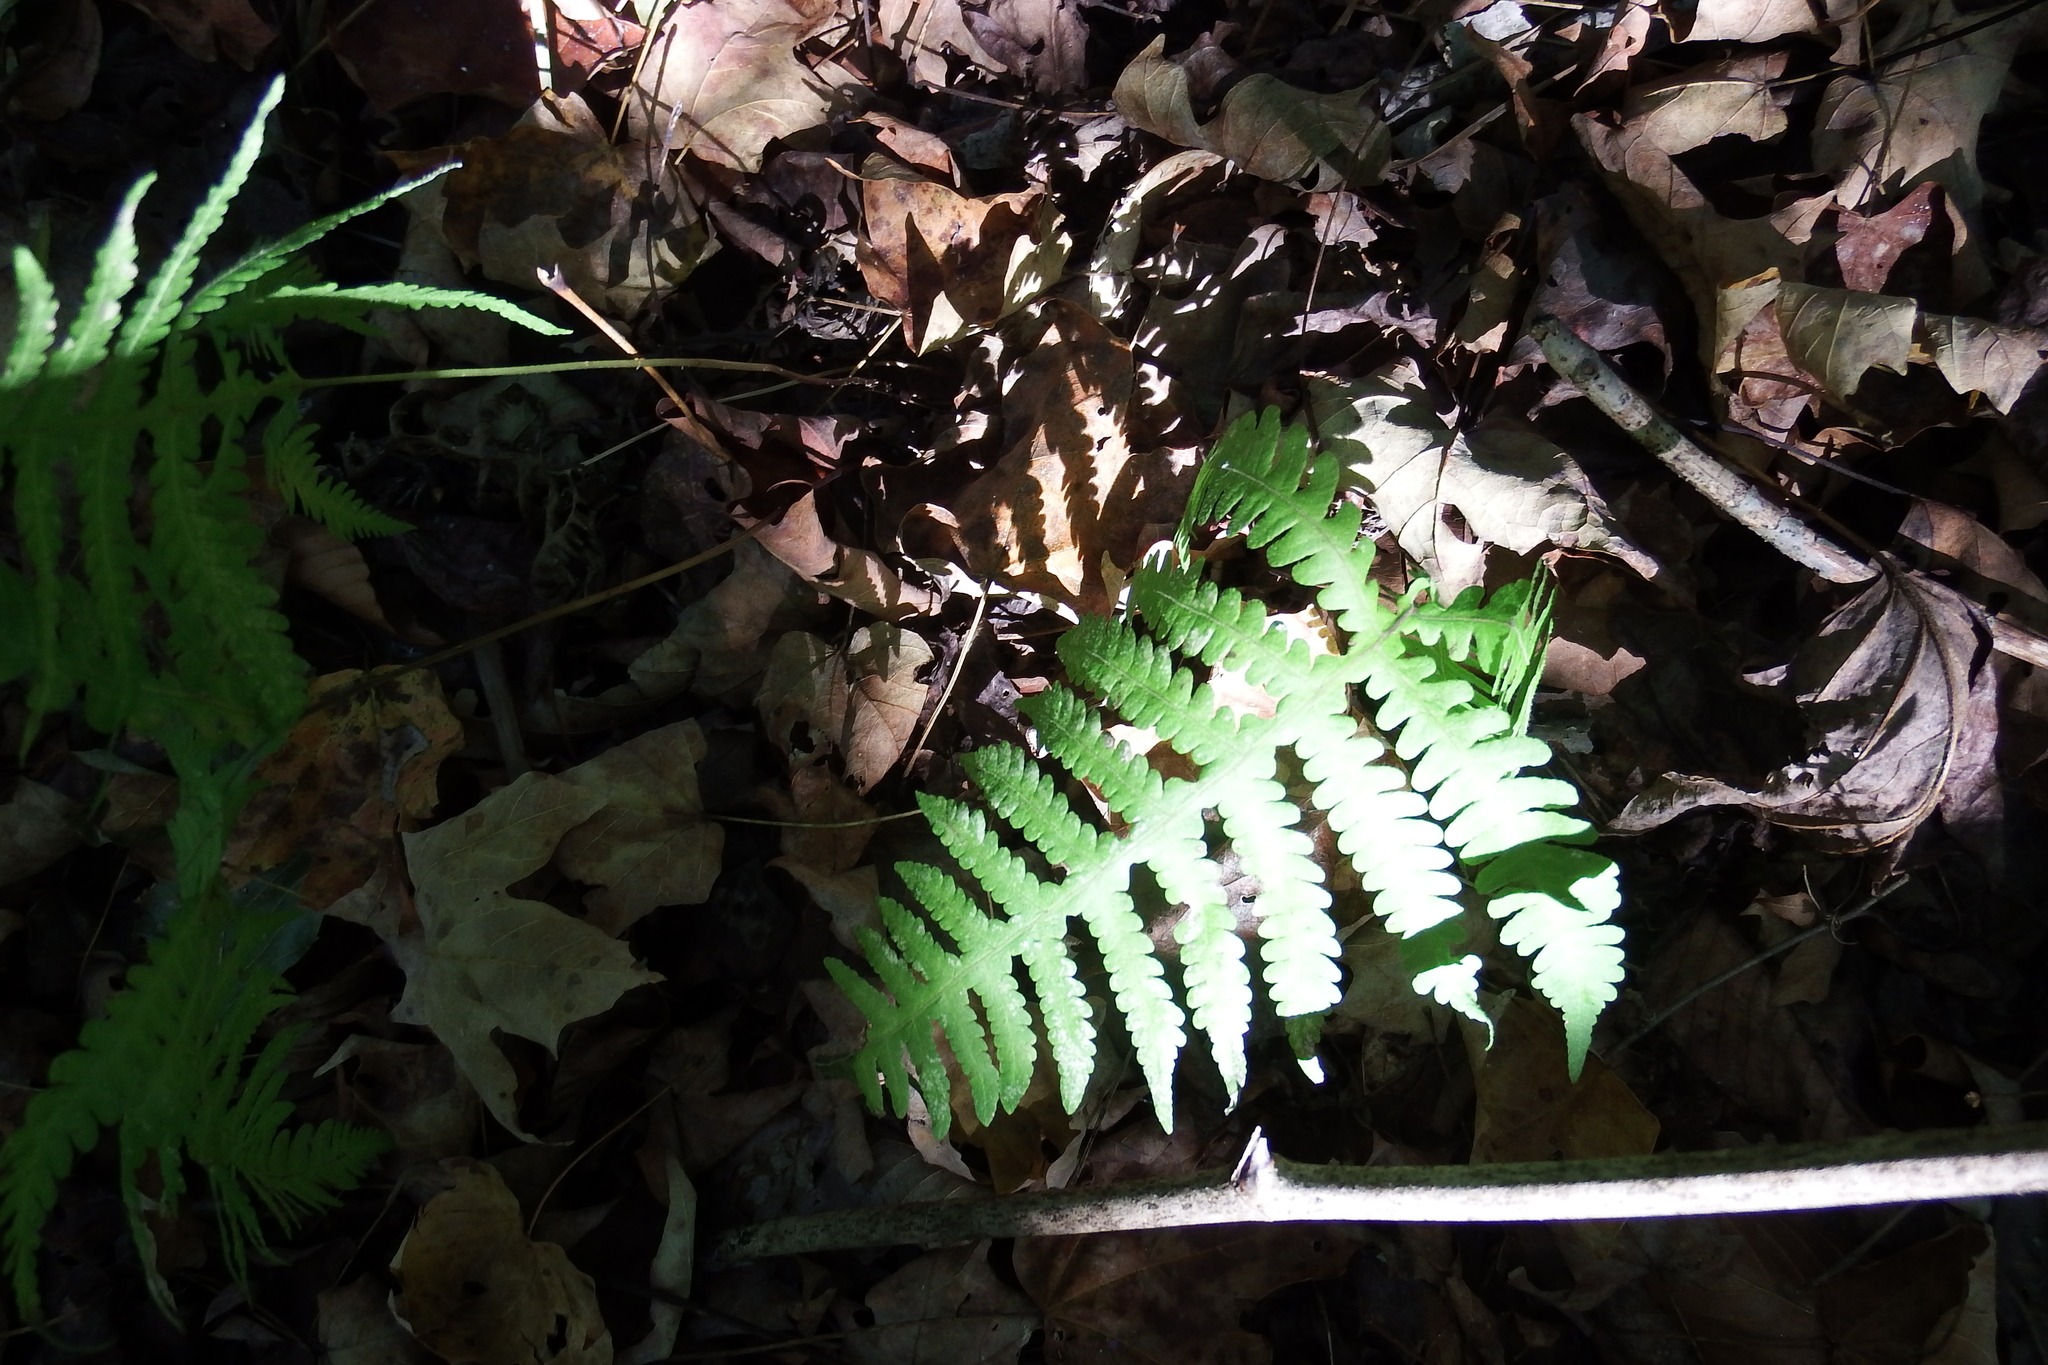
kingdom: Plantae
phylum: Tracheophyta
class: Polypodiopsida
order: Polypodiales
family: Thelypteridaceae
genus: Phegopteris
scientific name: Phegopteris hexagonoptera
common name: Broad beech fern
